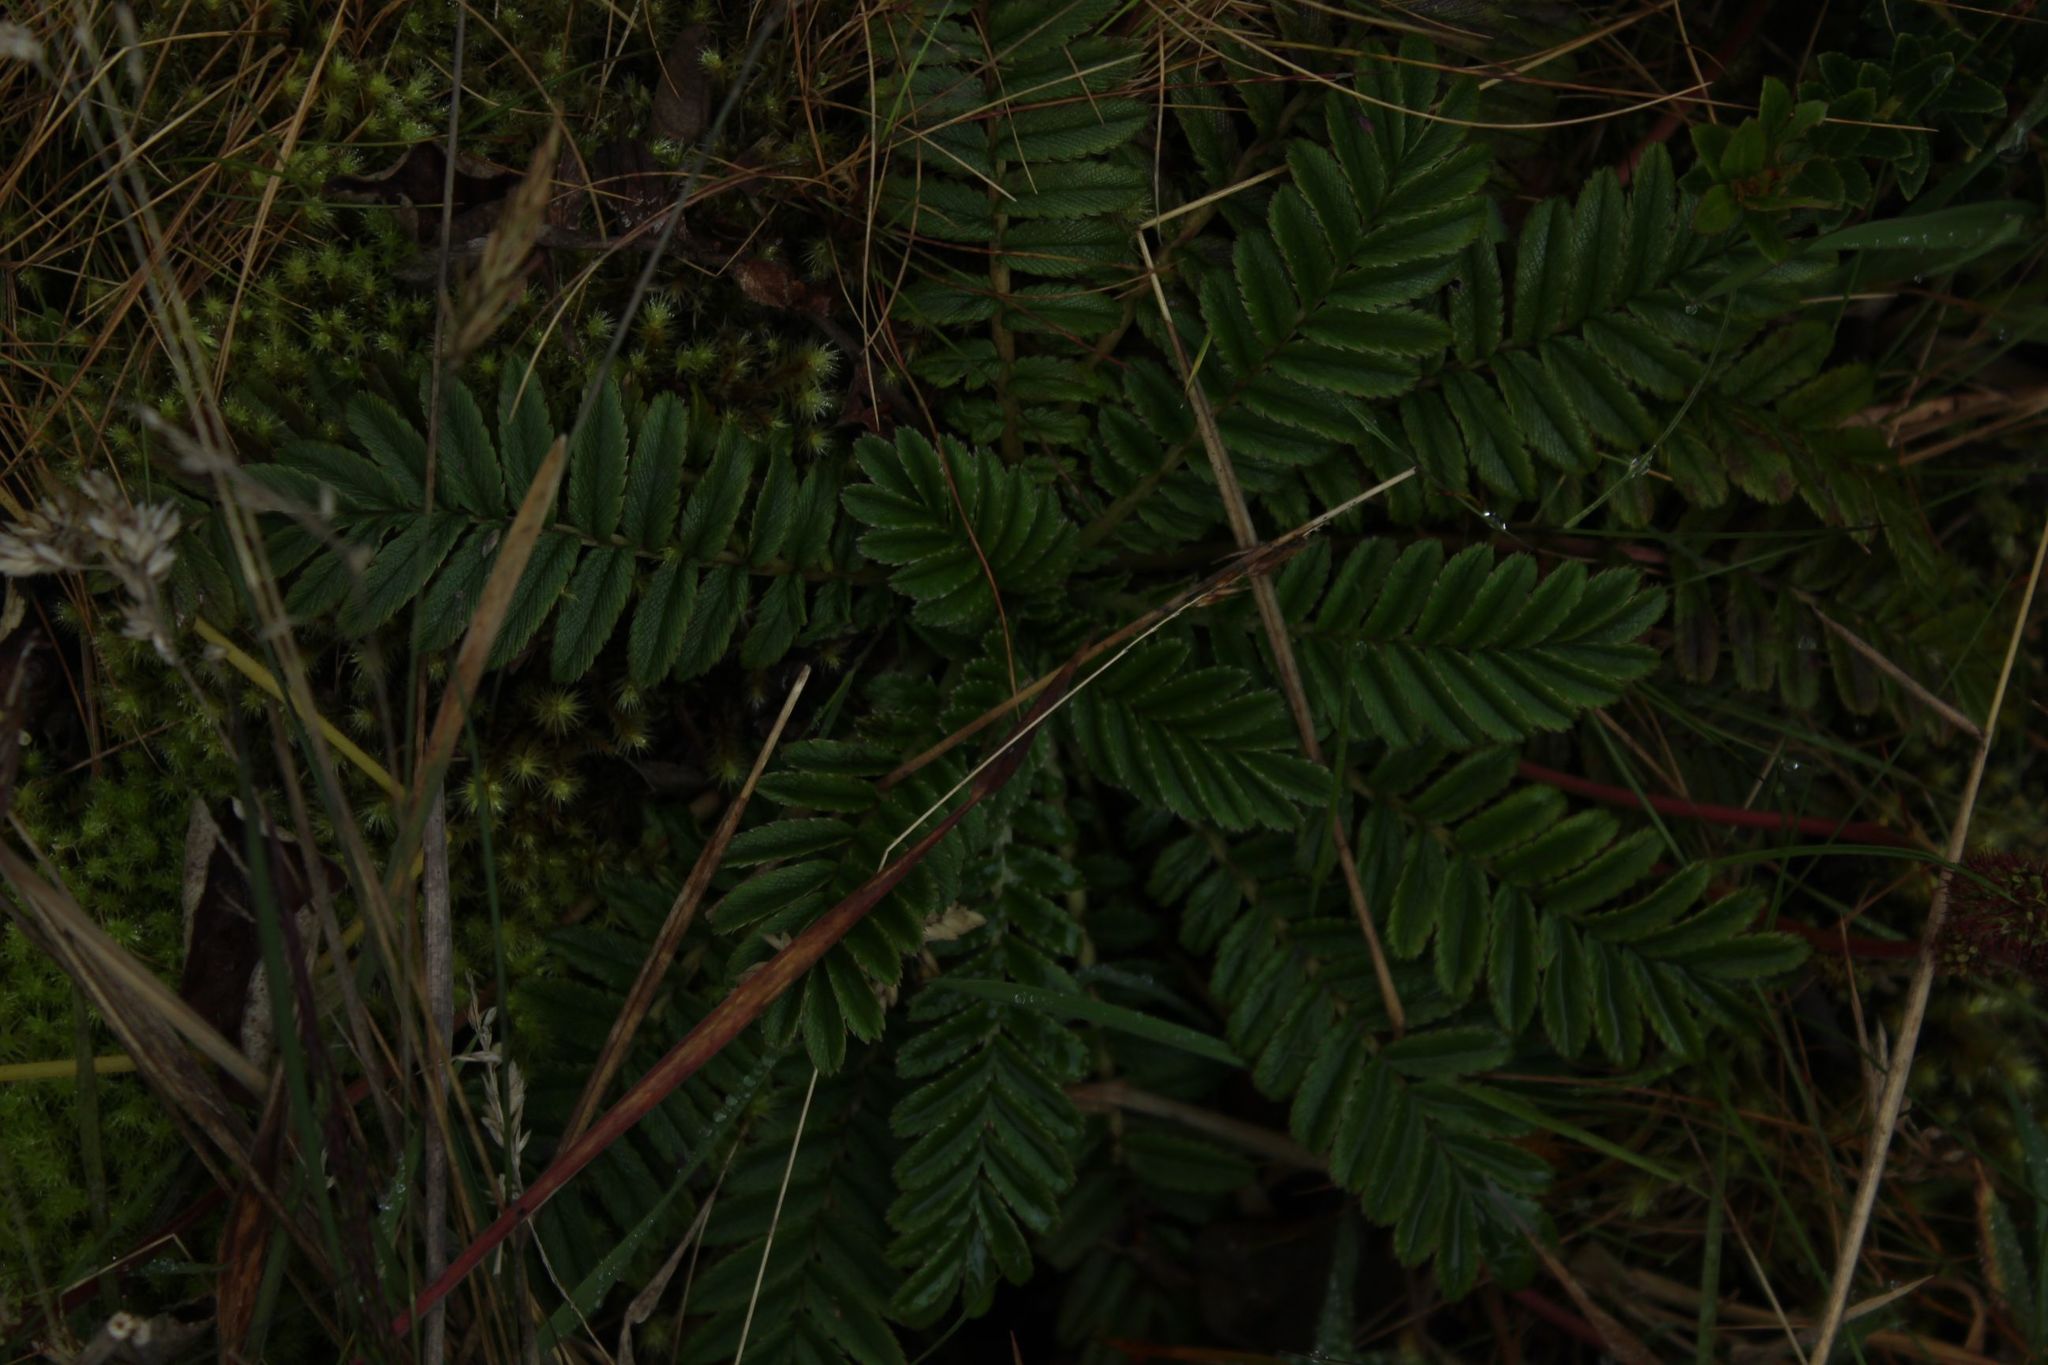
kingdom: Plantae
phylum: Tracheophyta
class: Magnoliopsida
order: Rosales
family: Rosaceae
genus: Acaena
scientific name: Acaena cylindristachya
